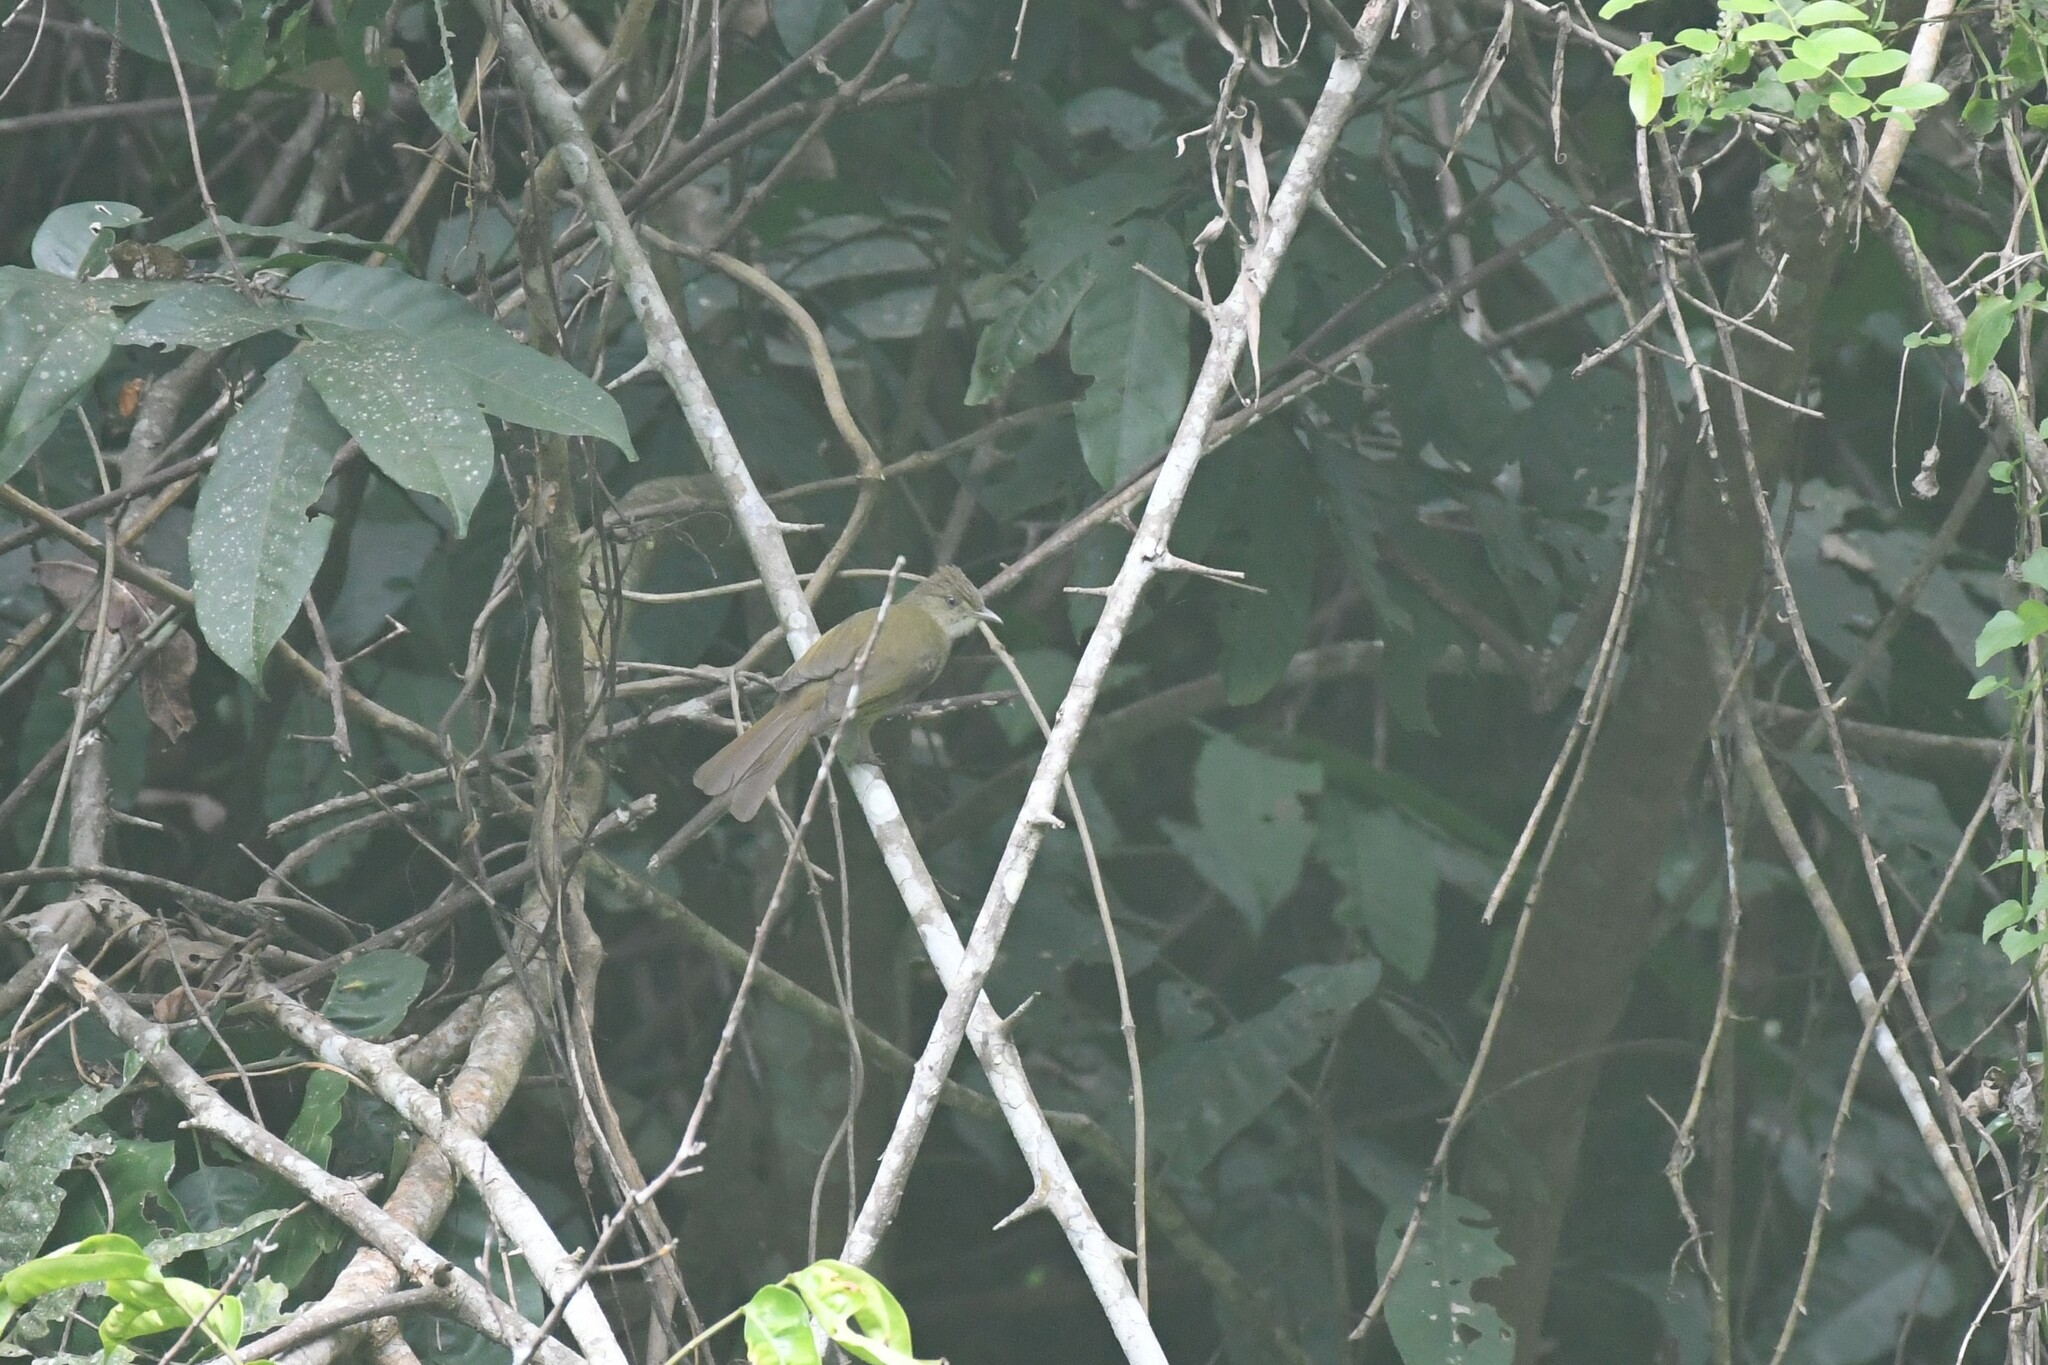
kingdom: Animalia
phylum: Chordata
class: Aves
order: Passeriformes
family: Pycnonotidae
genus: Iole
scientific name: Iole propinqua
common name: Grey-eyed bulbul
